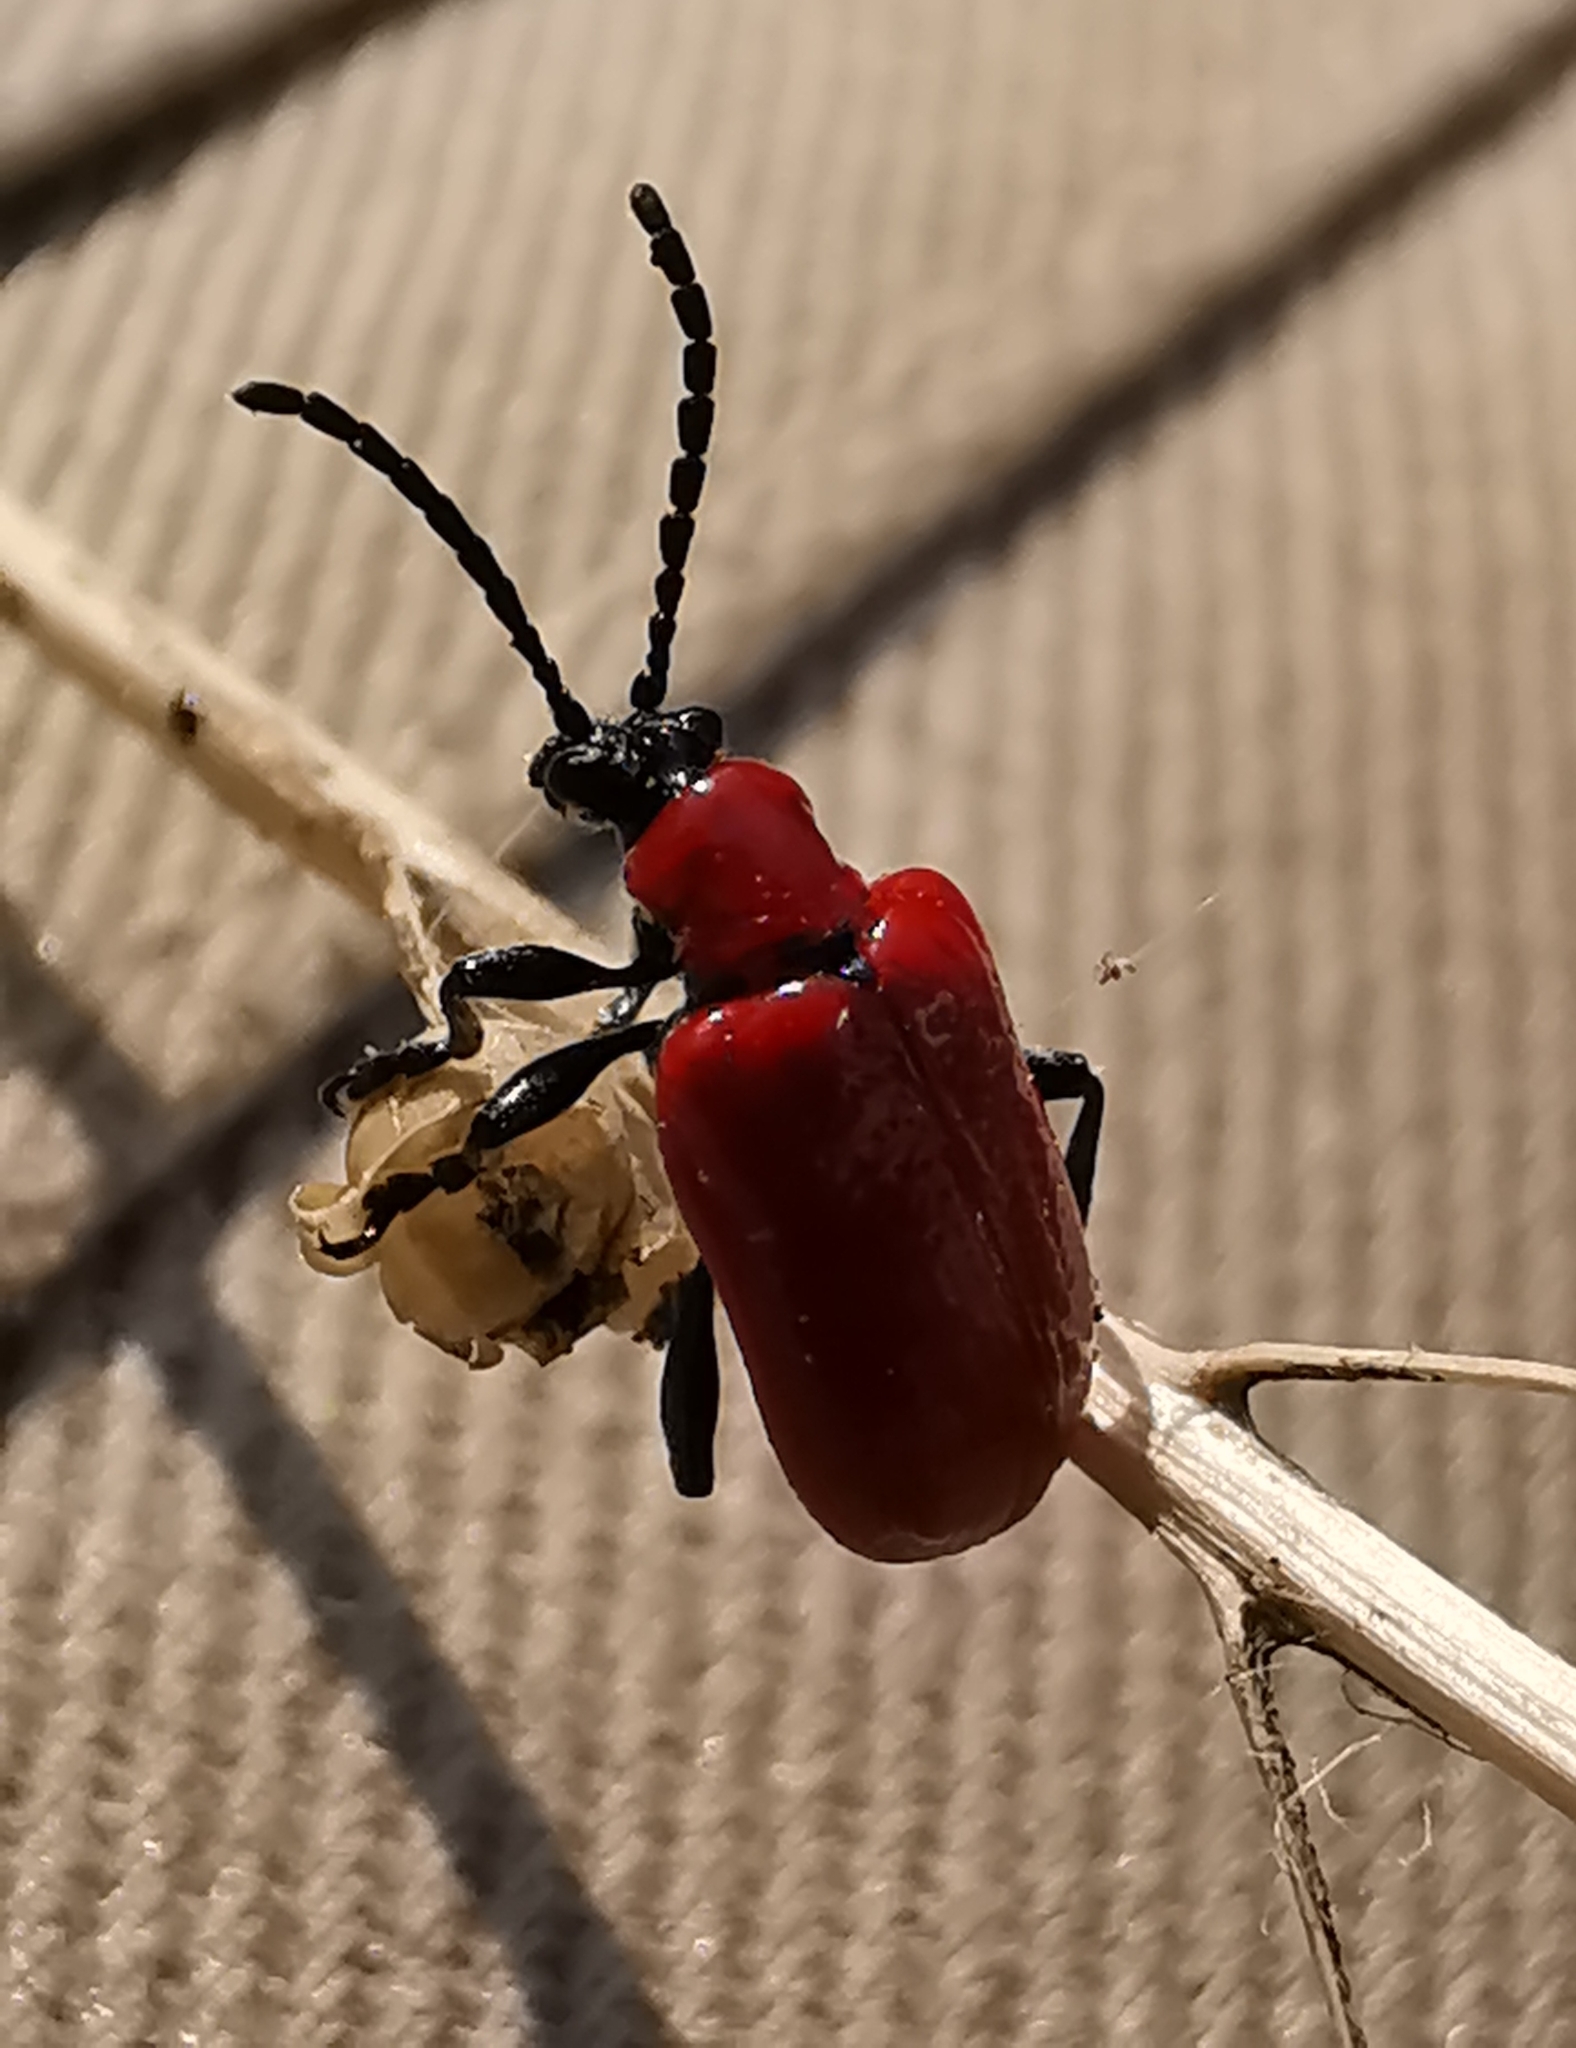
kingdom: Animalia
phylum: Arthropoda
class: Insecta
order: Coleoptera
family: Chrysomelidae
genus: Lilioceris
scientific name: Lilioceris lilii
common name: Lily beetle
